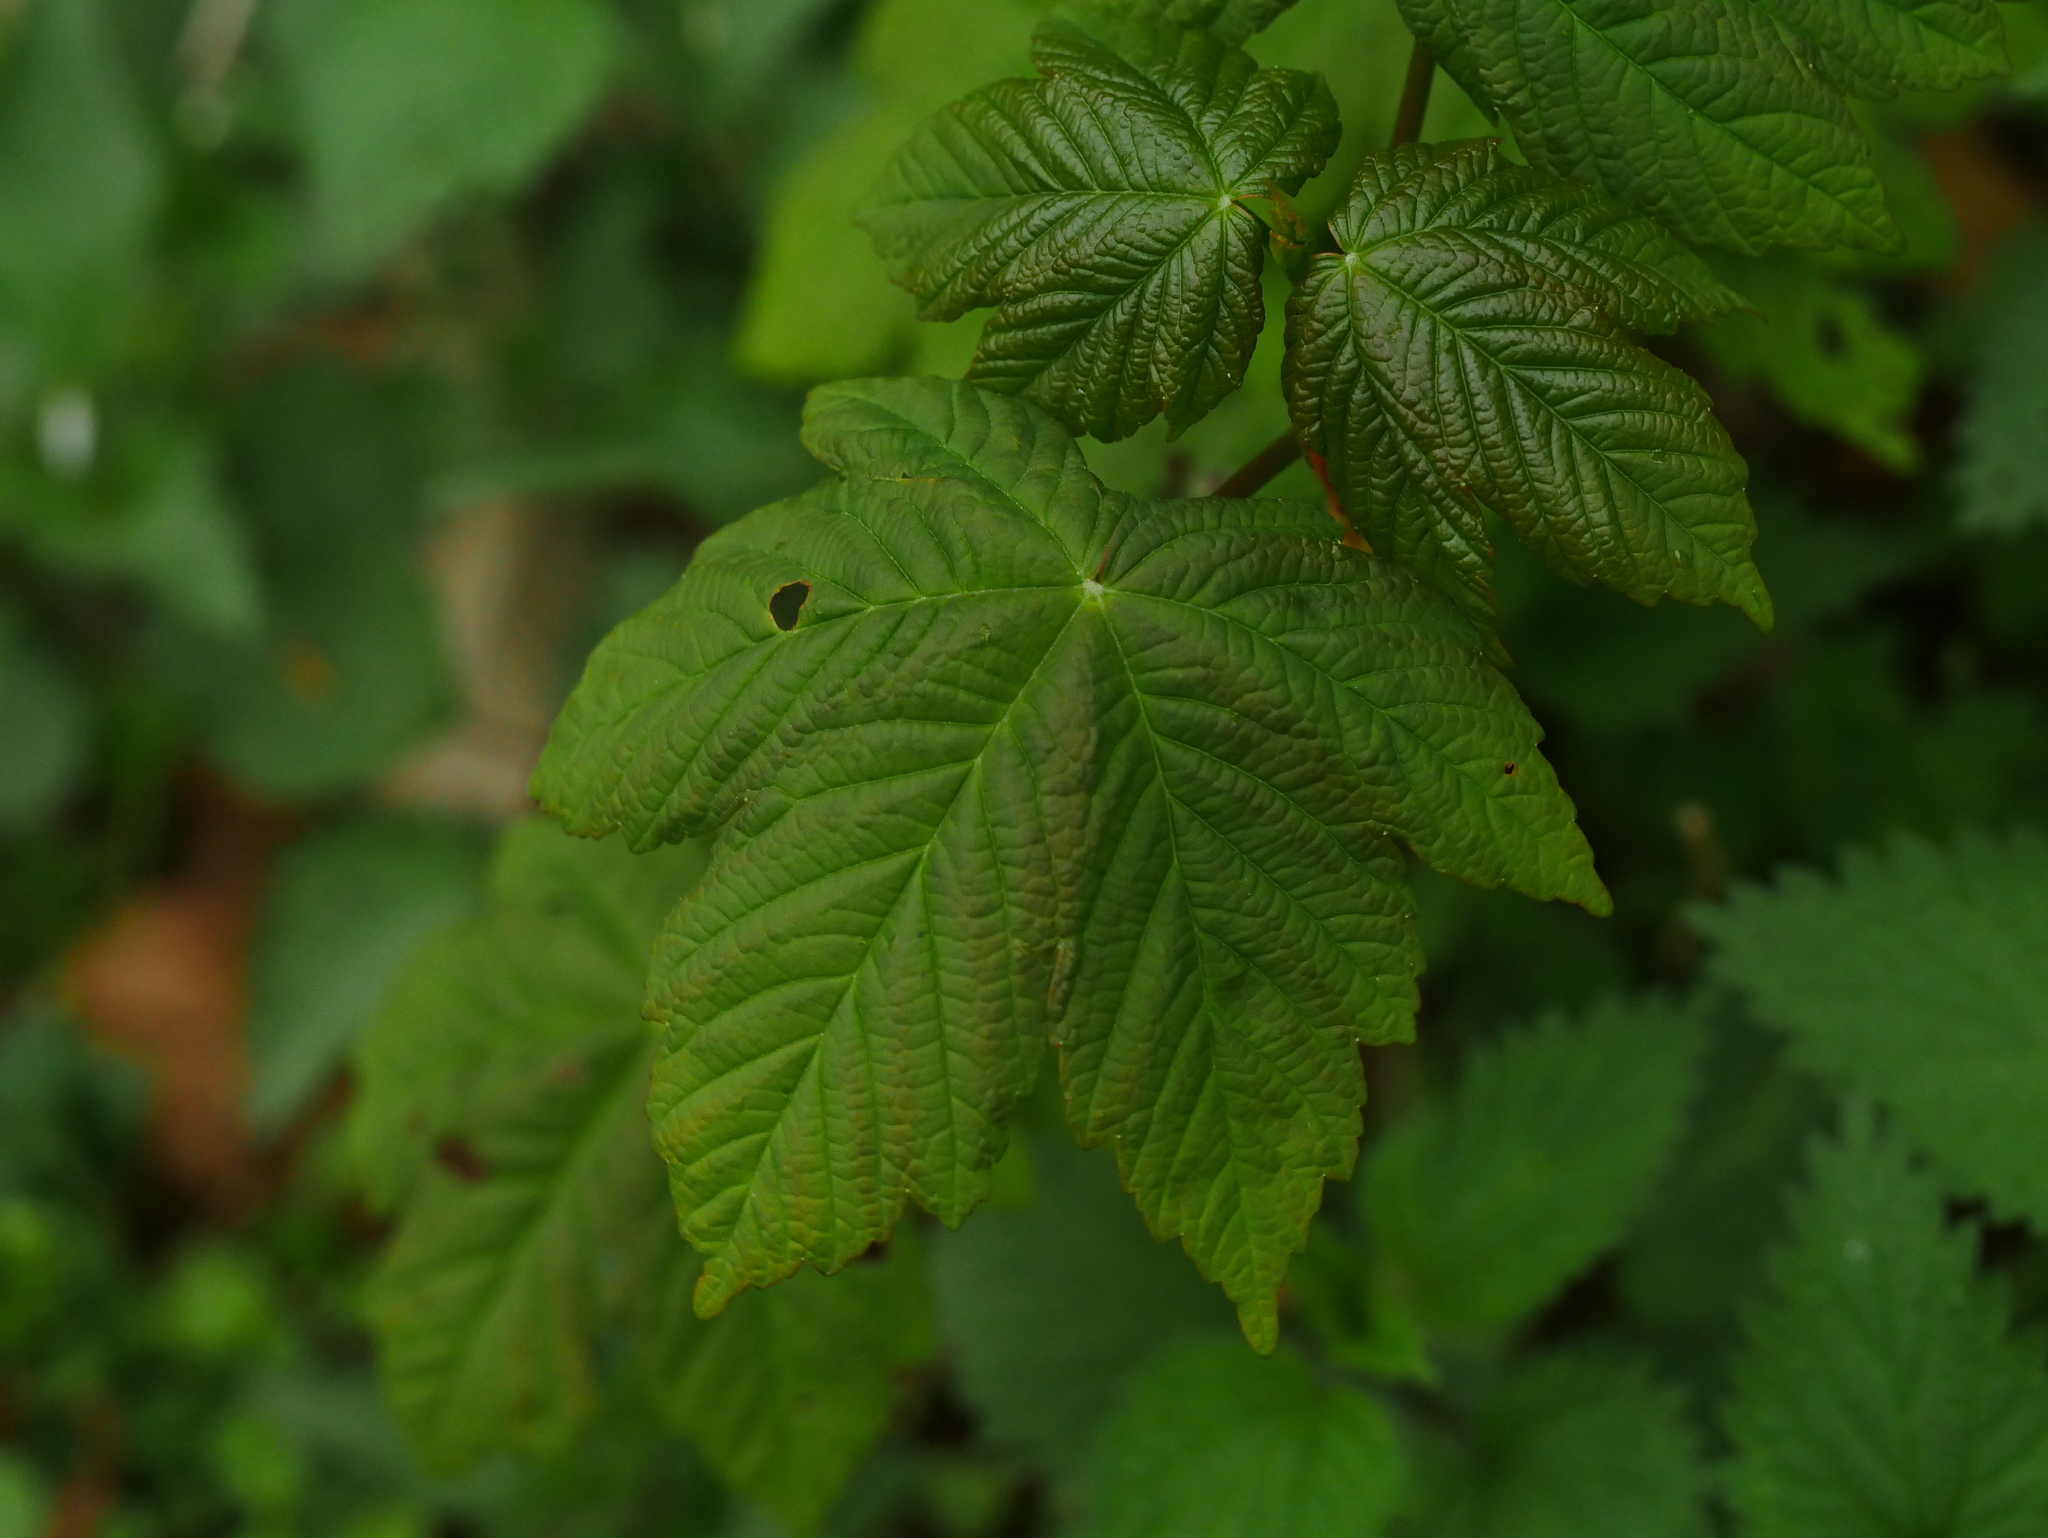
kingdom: Plantae
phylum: Tracheophyta
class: Magnoliopsida
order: Sapindales
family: Sapindaceae
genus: Acer
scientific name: Acer pseudoplatanus
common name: Sycamore
